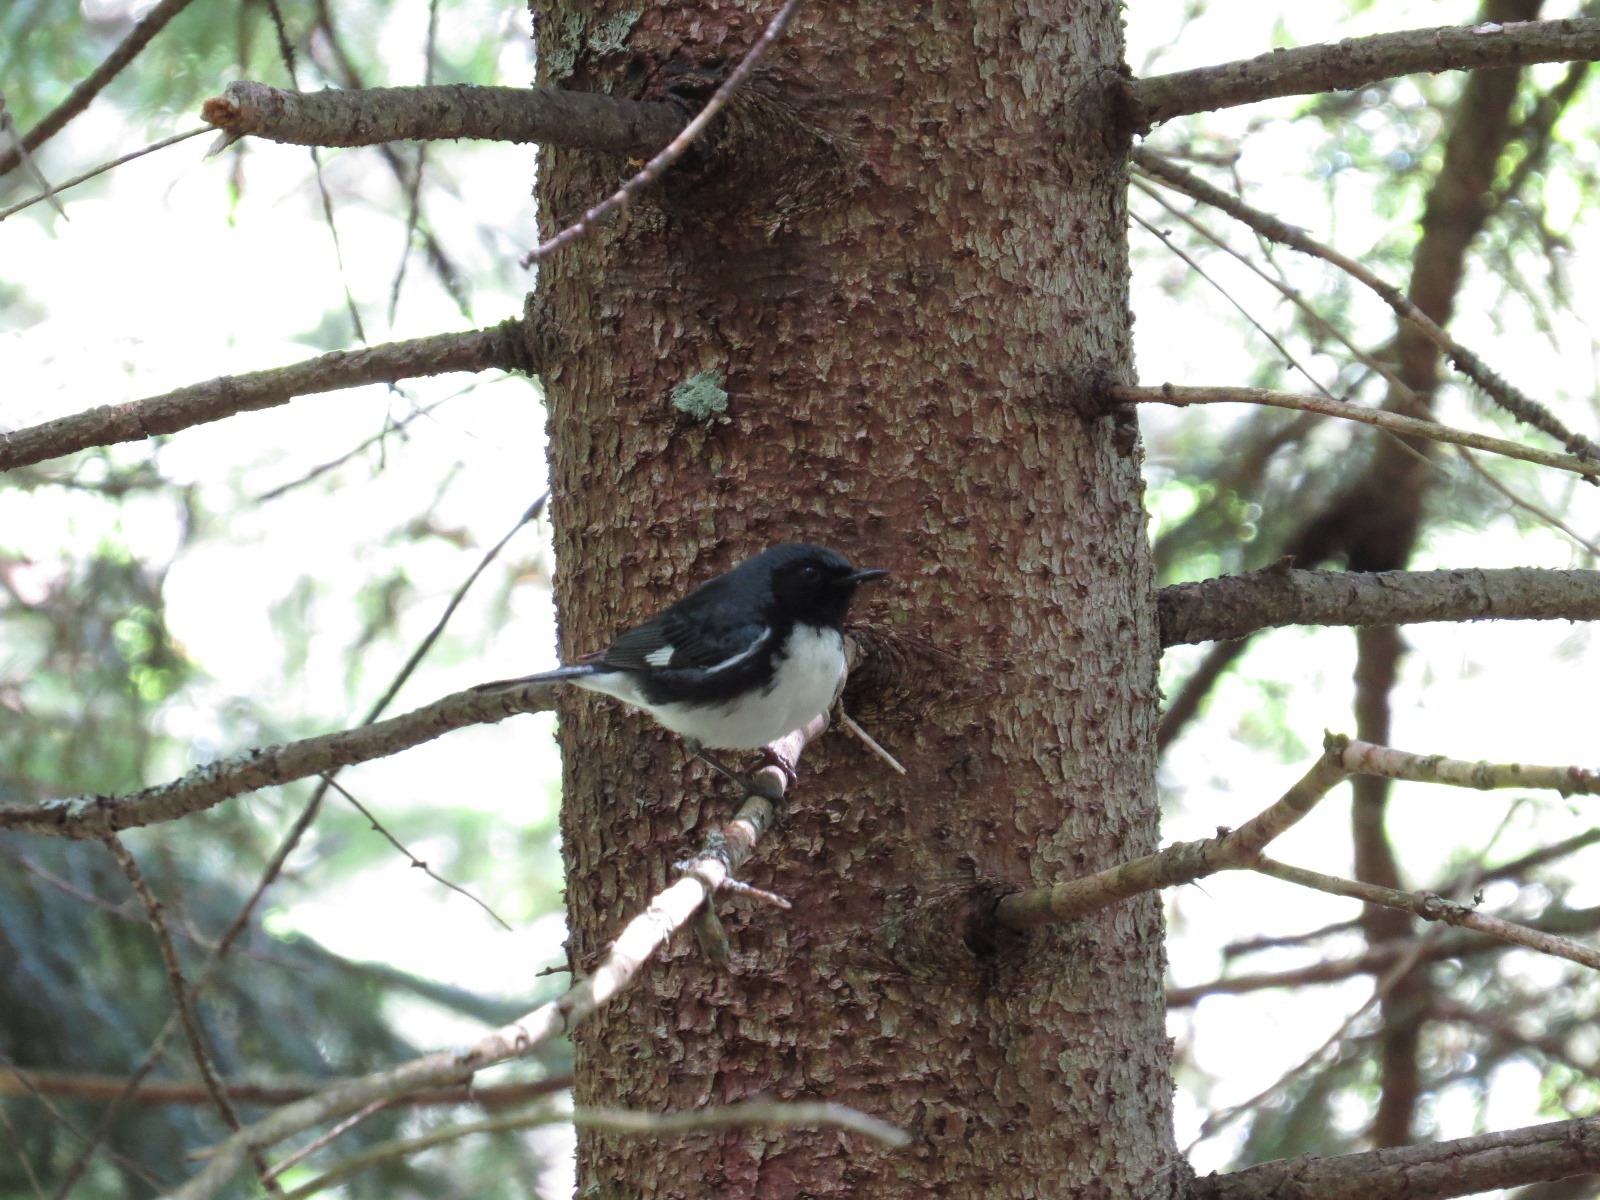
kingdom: Animalia
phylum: Chordata
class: Aves
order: Passeriformes
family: Parulidae
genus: Setophaga
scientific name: Setophaga caerulescens
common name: Black-throated blue warbler
